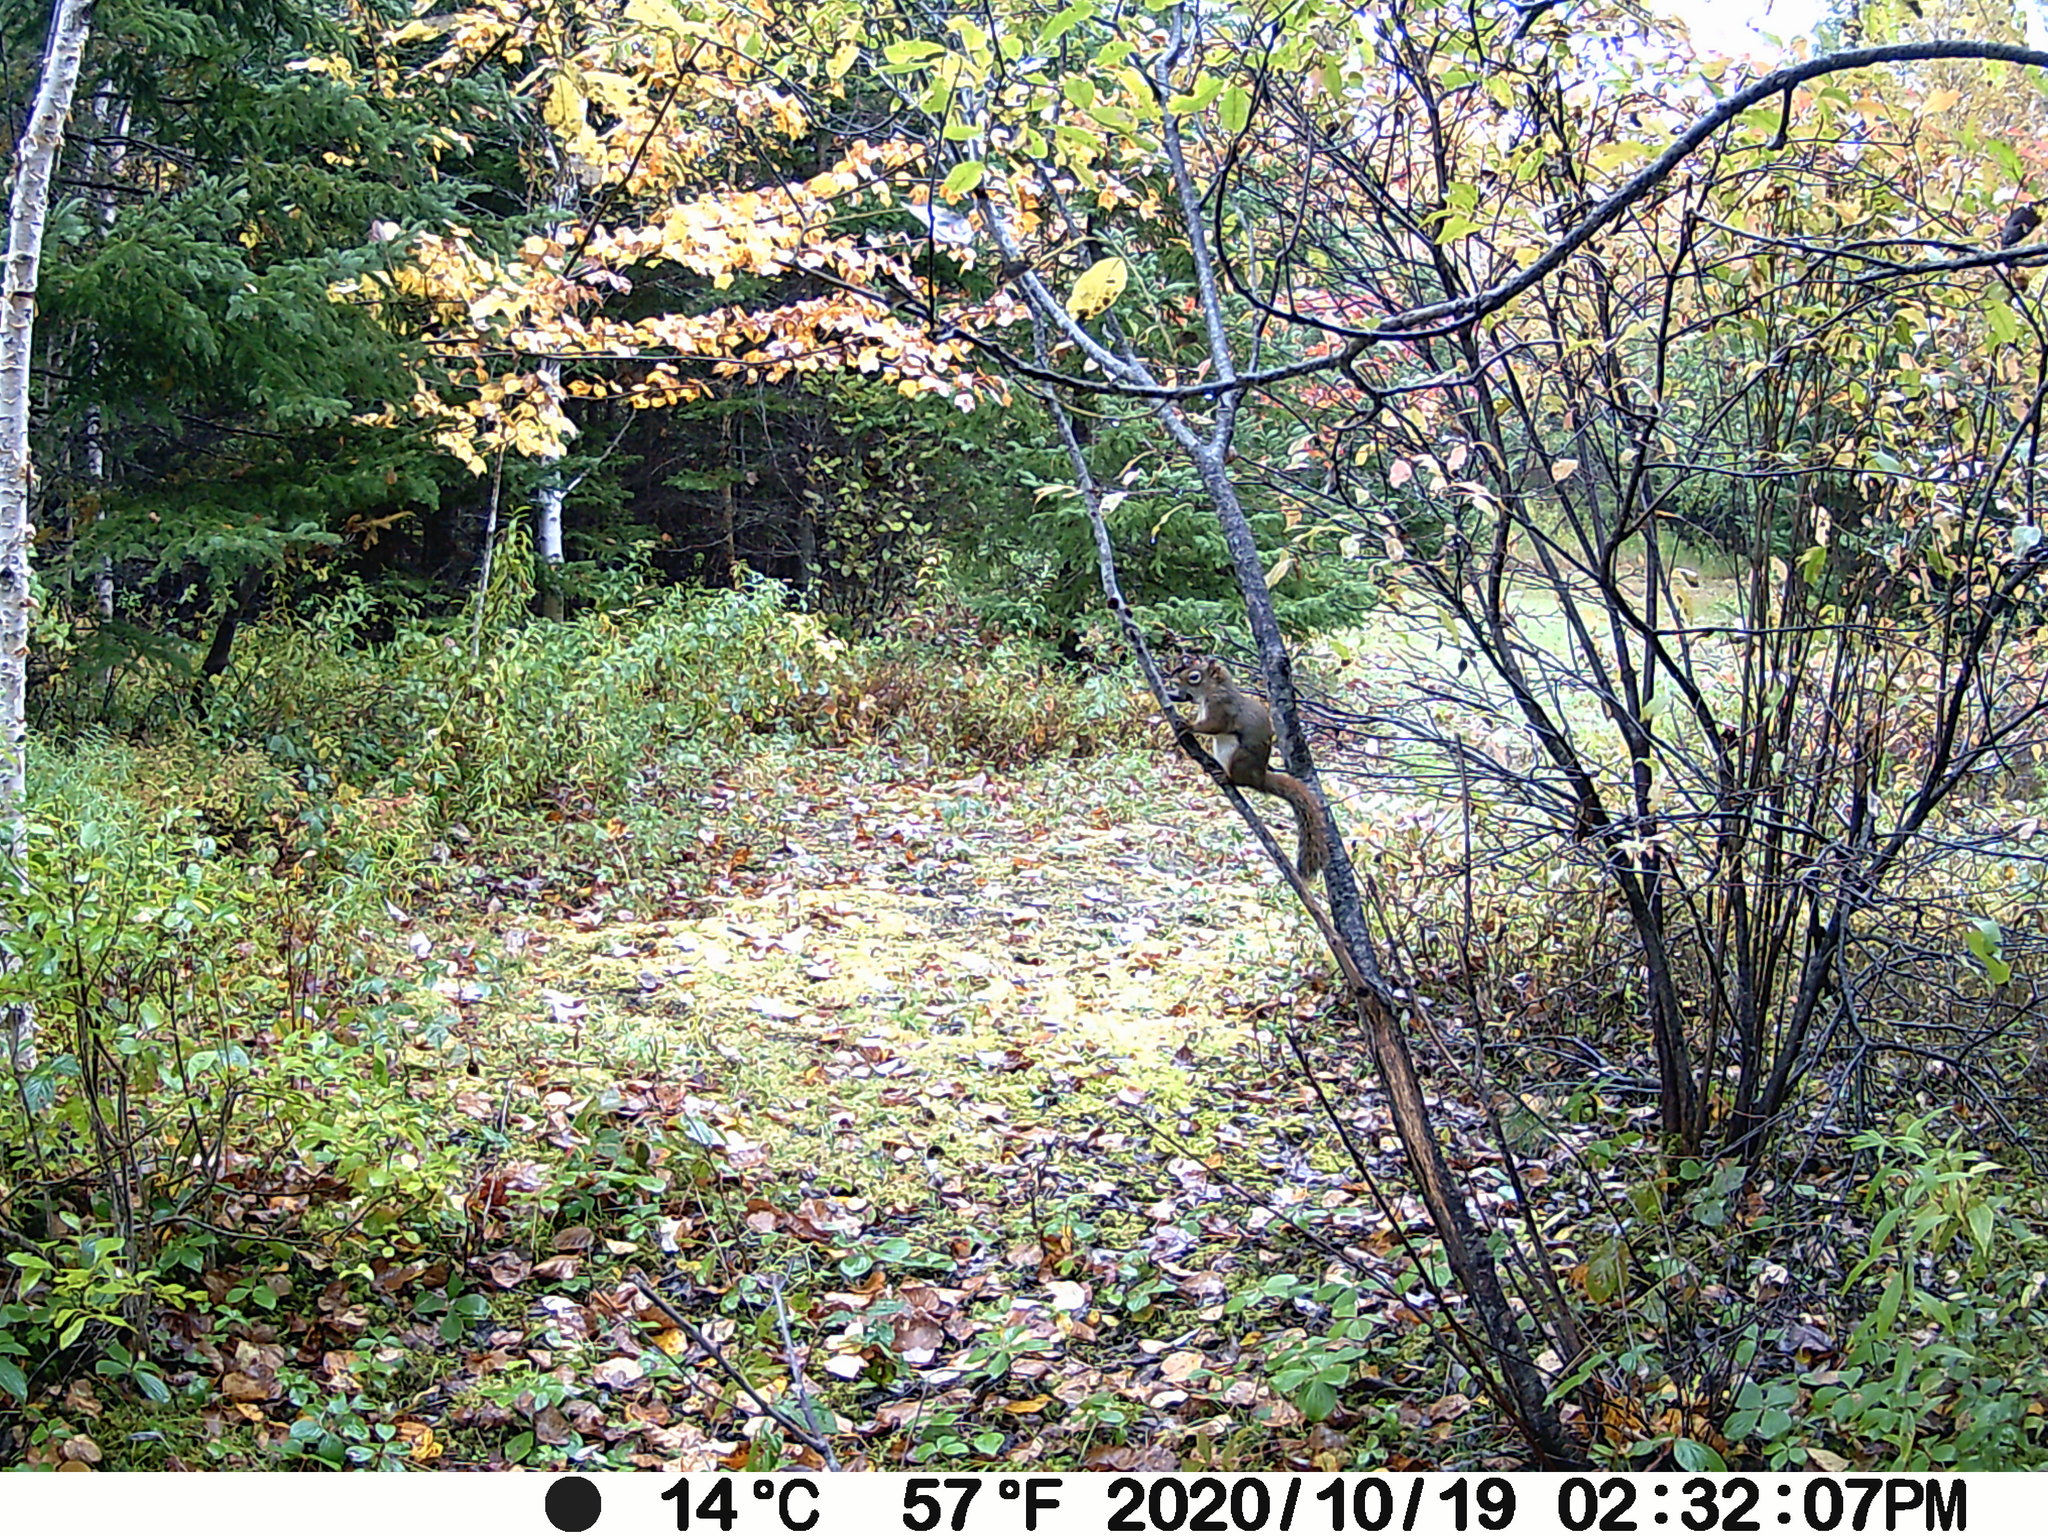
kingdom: Animalia
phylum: Chordata
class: Mammalia
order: Rodentia
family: Sciuridae
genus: Tamiasciurus
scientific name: Tamiasciurus hudsonicus
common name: Red squirrel
